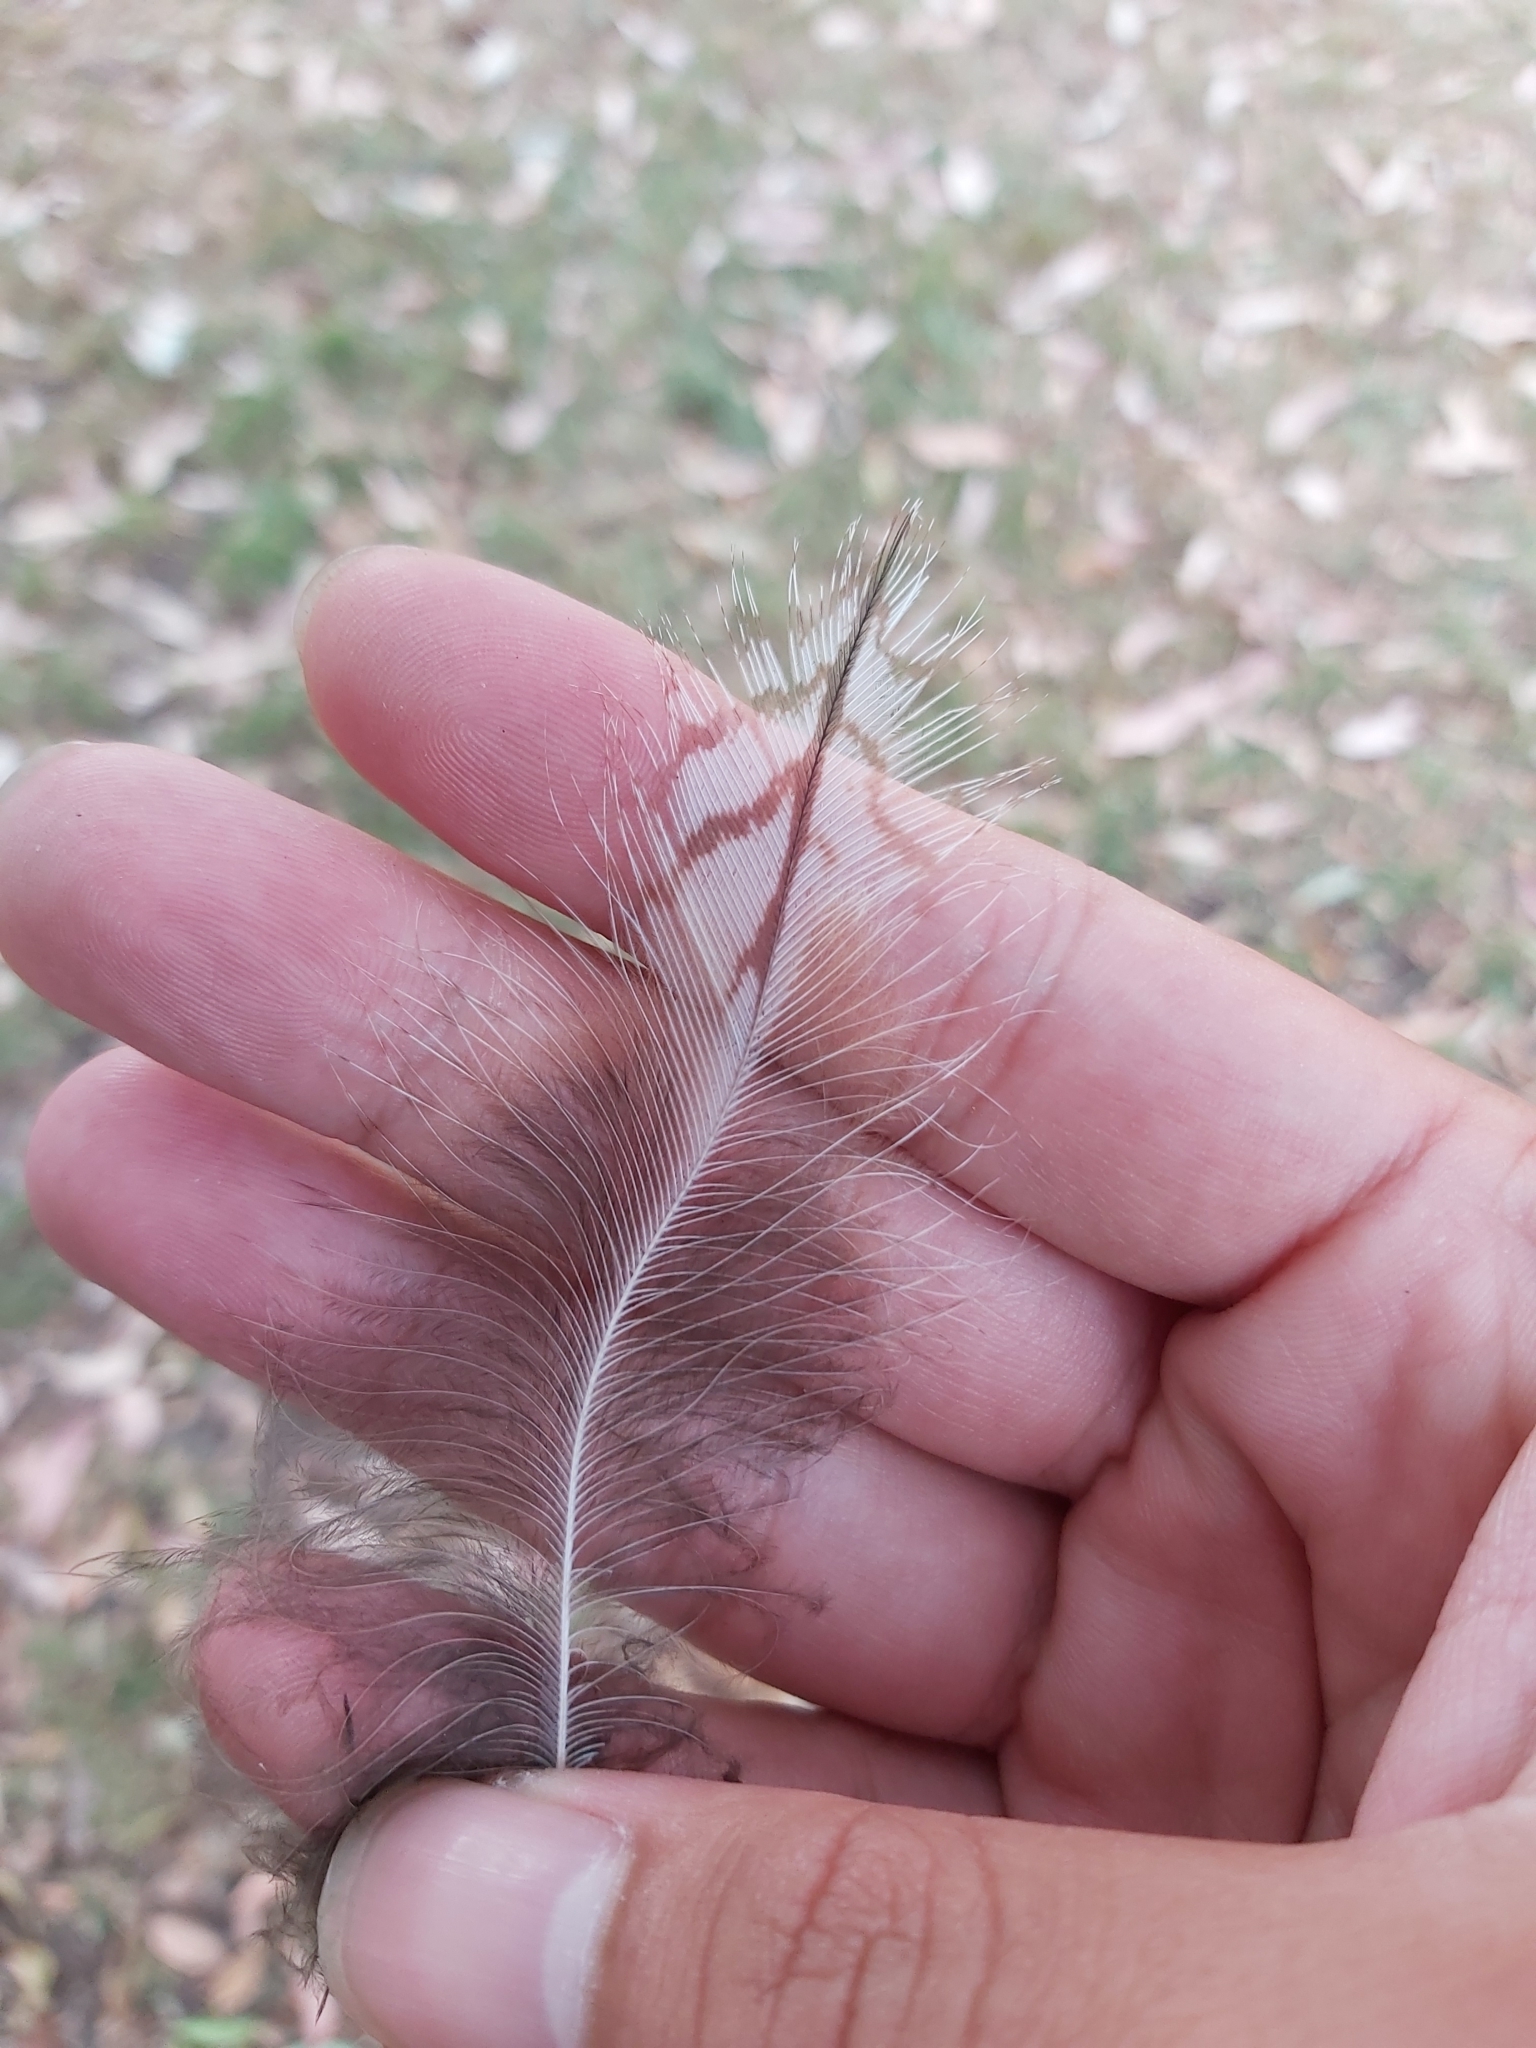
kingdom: Animalia
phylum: Chordata
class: Aves
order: Caprimulgiformes
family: Podargidae
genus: Podargus
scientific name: Podargus strigoides
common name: Tawny frogmouth
